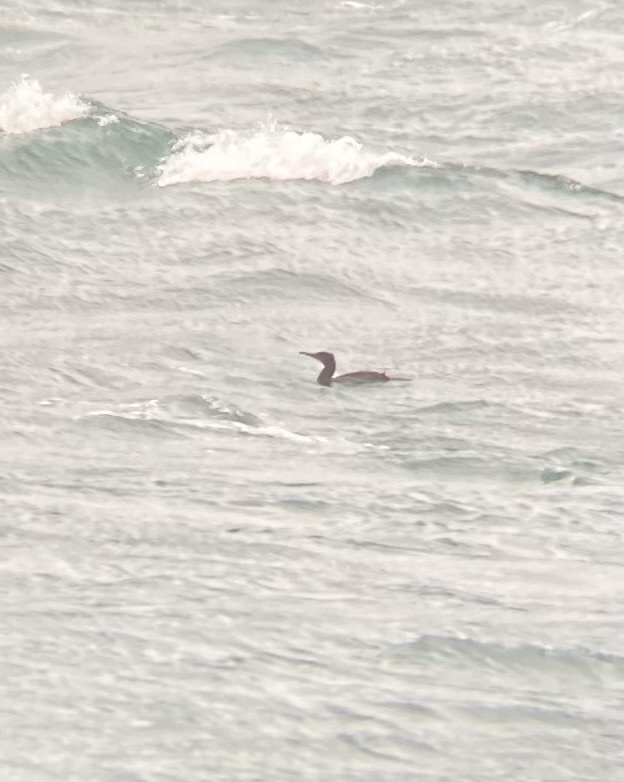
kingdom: Animalia
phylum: Chordata
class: Aves
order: Suliformes
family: Phalacrocoracidae
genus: Urile
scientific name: Urile penicillatus
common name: Brandt's cormorant
